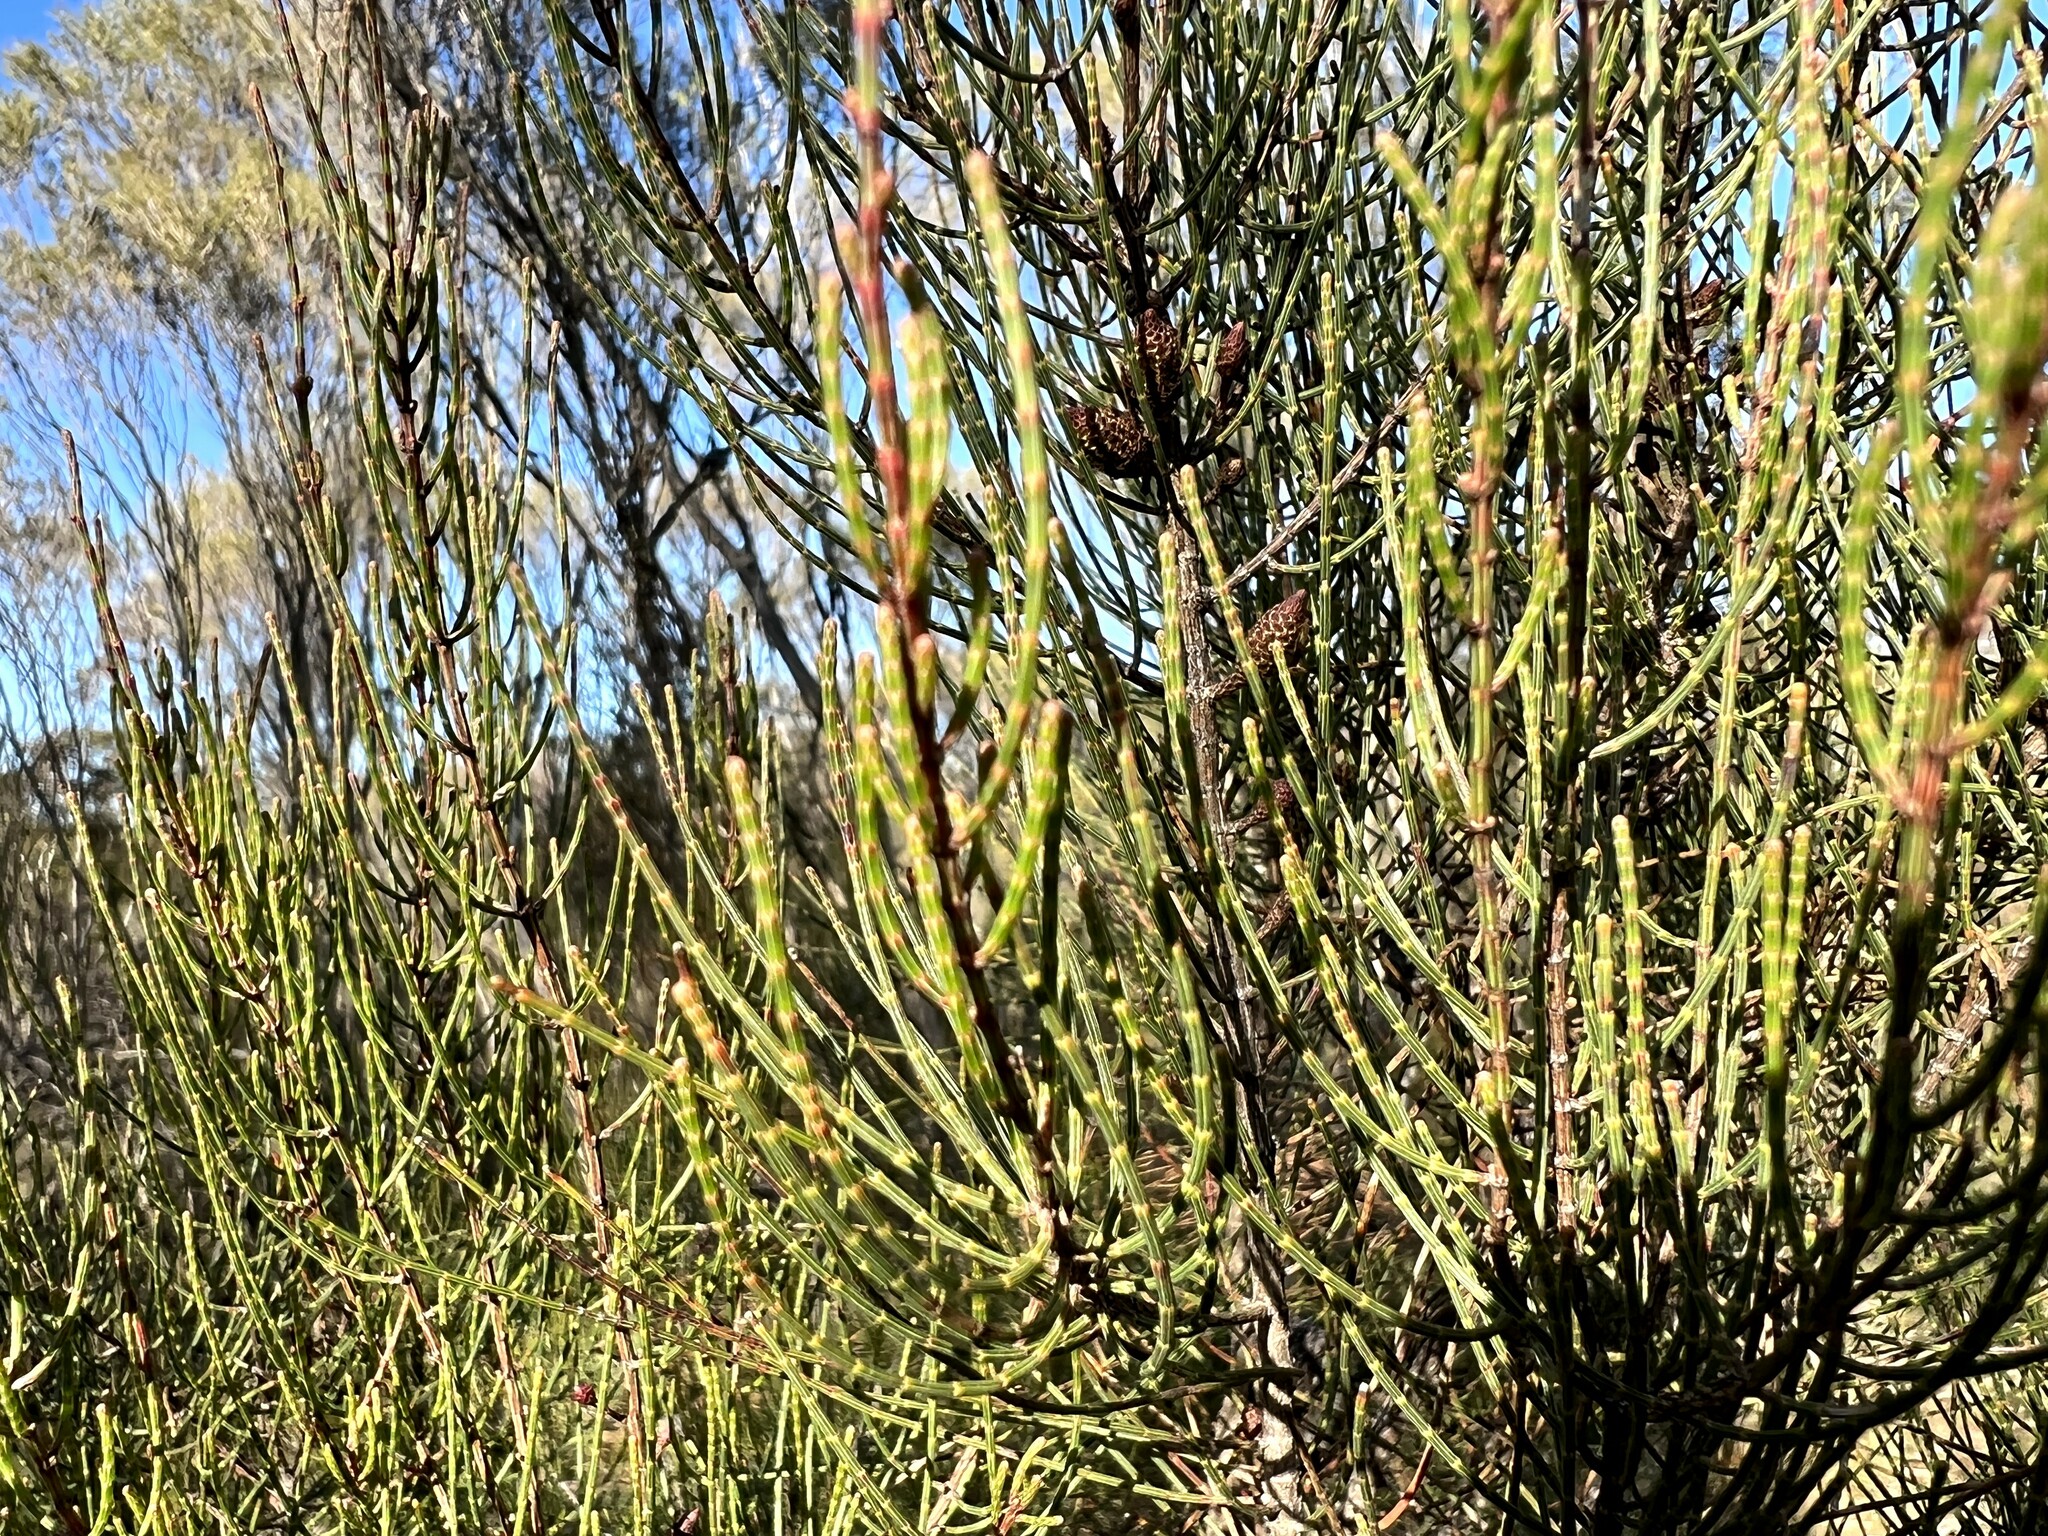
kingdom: Plantae
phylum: Tracheophyta
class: Magnoliopsida
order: Fagales
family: Casuarinaceae
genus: Allocasuarina
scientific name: Allocasuarina muelleriana
